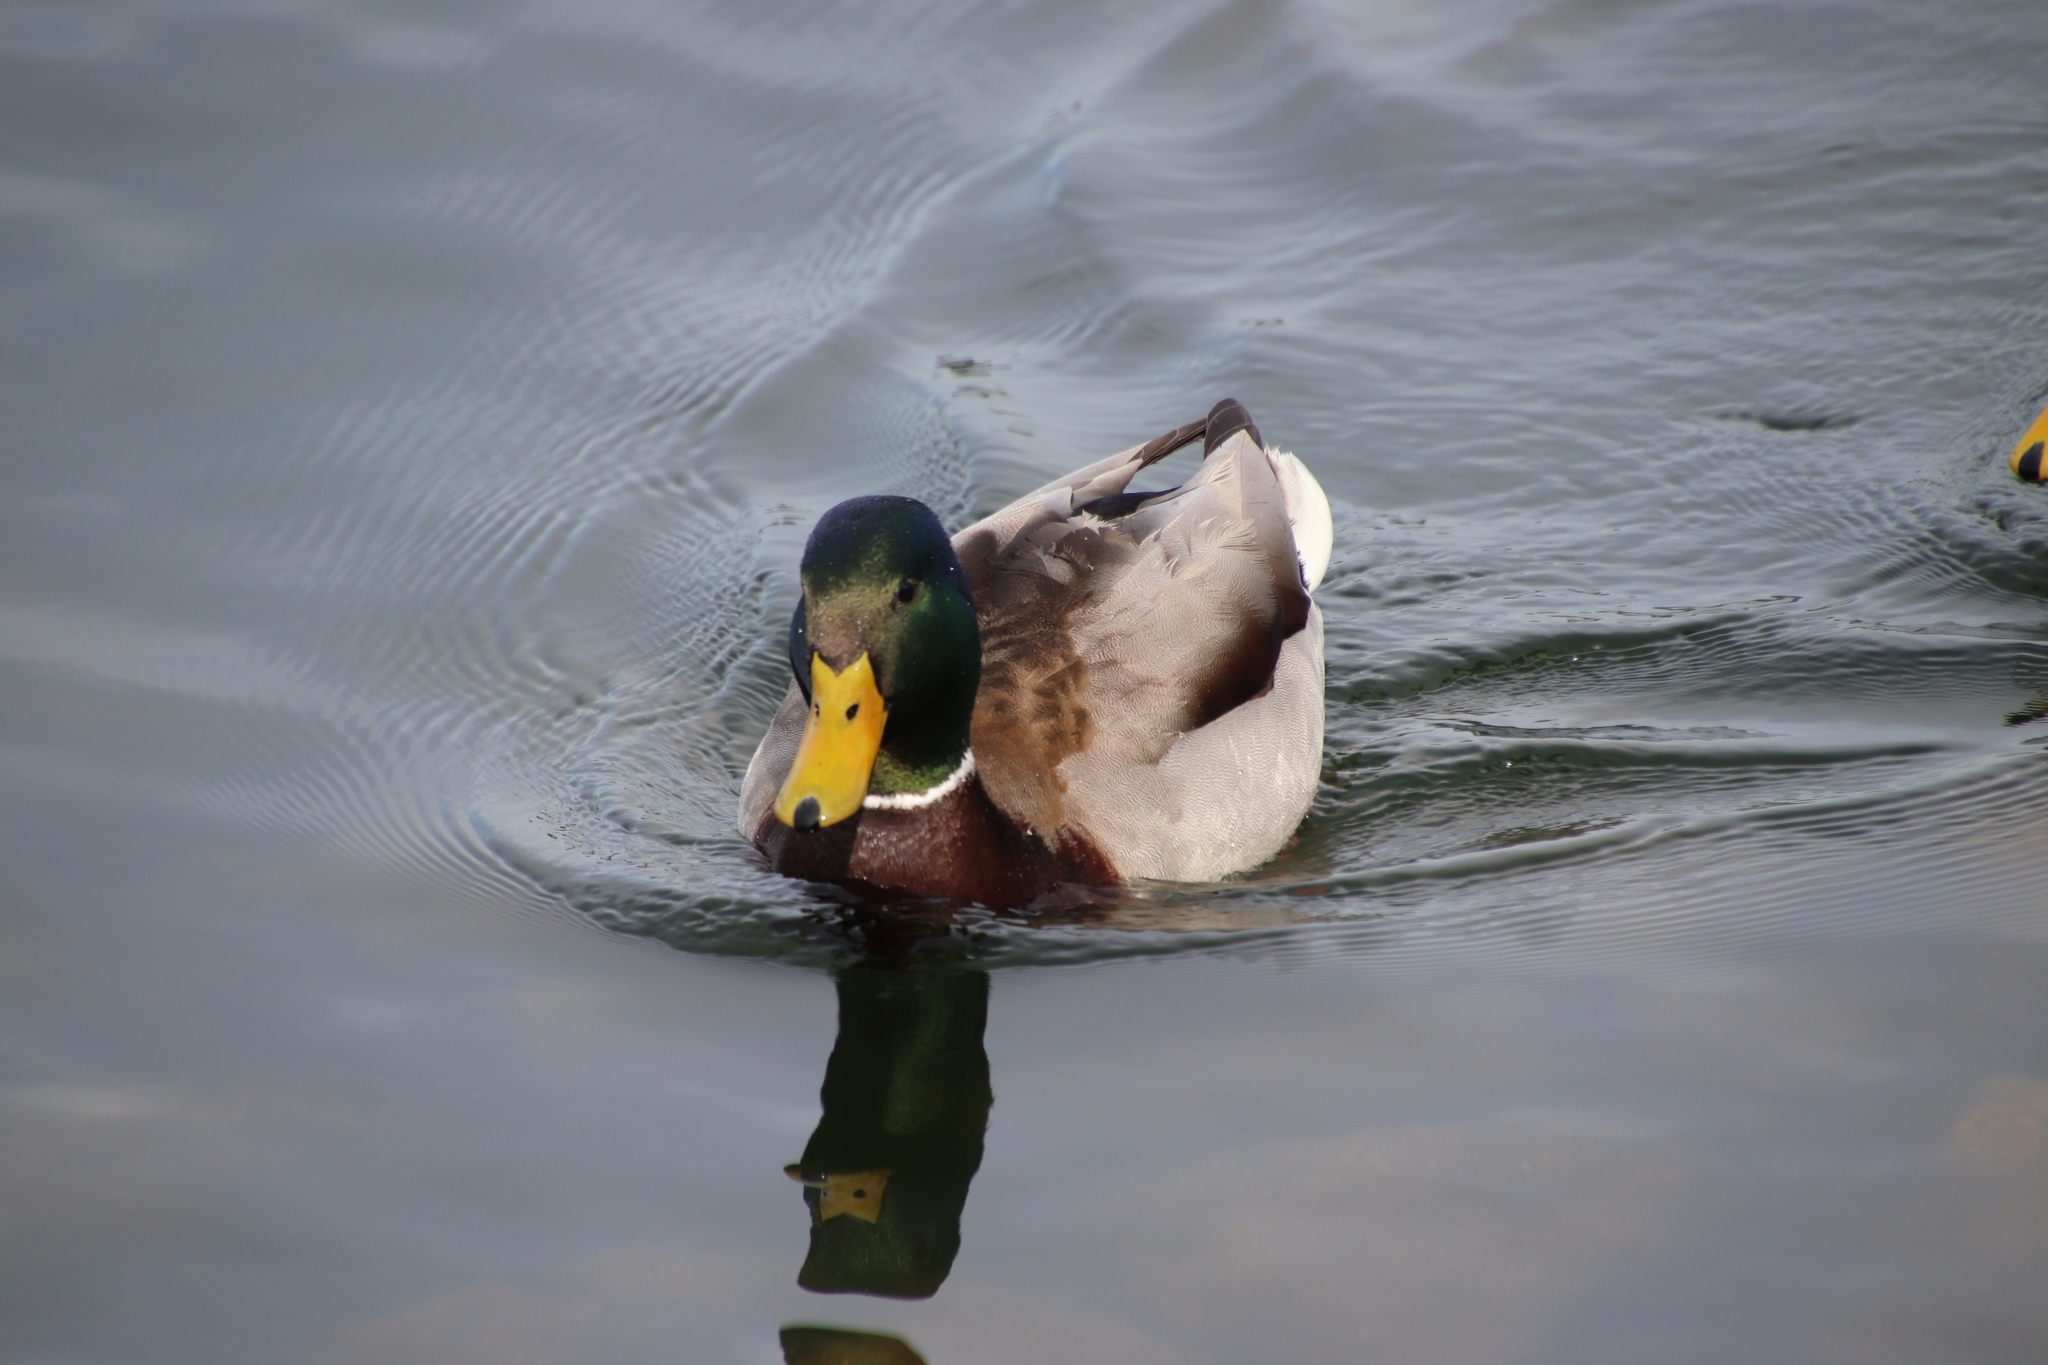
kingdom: Animalia
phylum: Chordata
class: Aves
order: Anseriformes
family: Anatidae
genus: Anas
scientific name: Anas platyrhynchos
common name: Mallard
